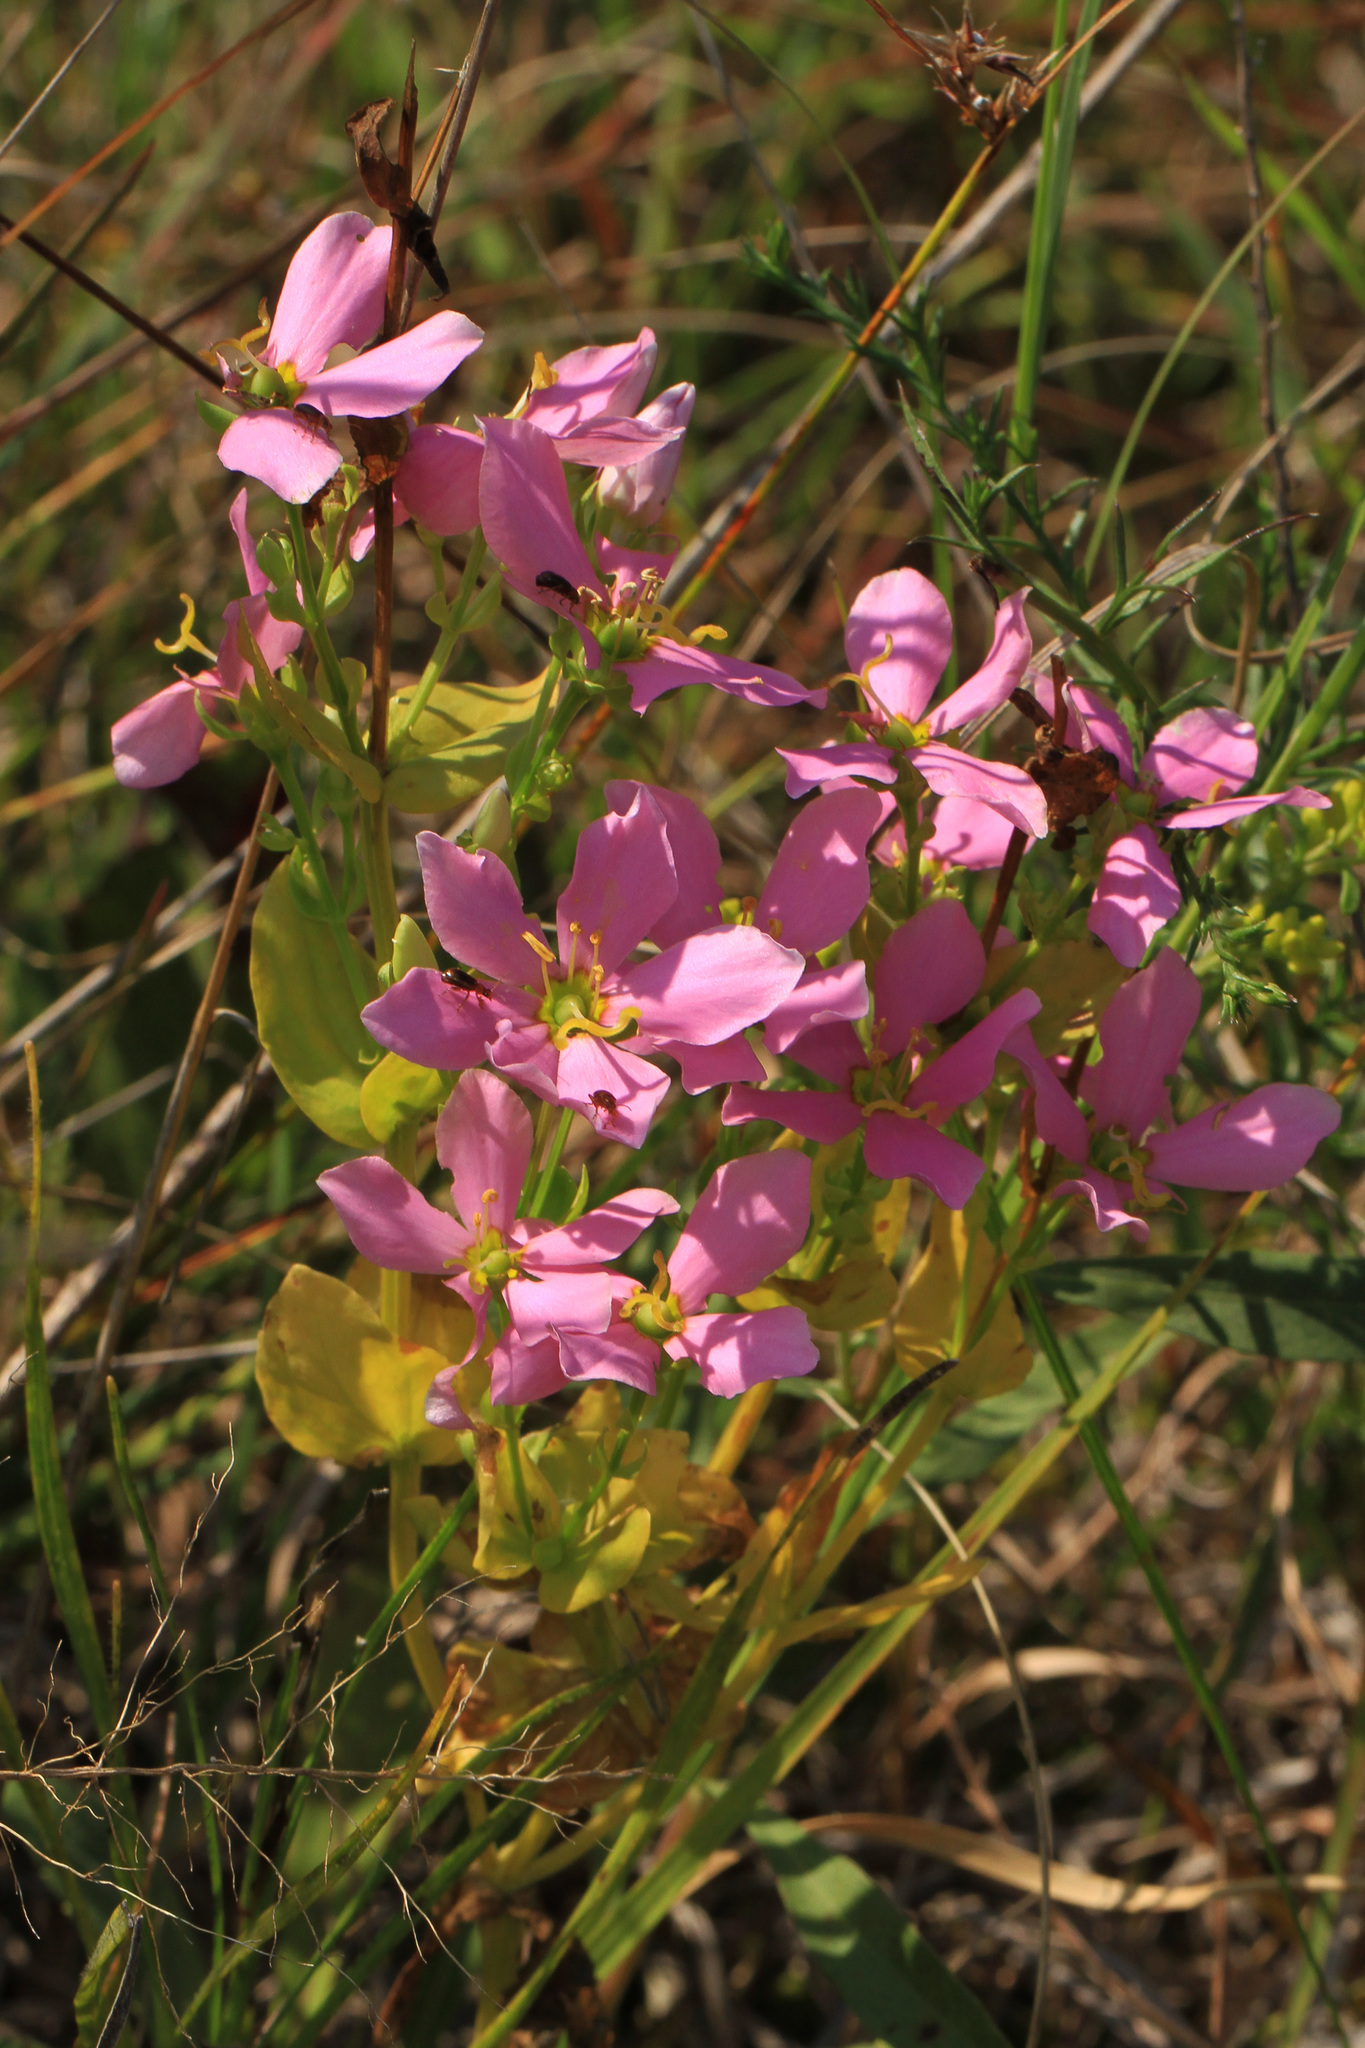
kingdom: Plantae
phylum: Tracheophyta
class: Magnoliopsida
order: Gentianales
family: Gentianaceae
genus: Sabatia
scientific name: Sabatia angularis
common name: Rose-pink
